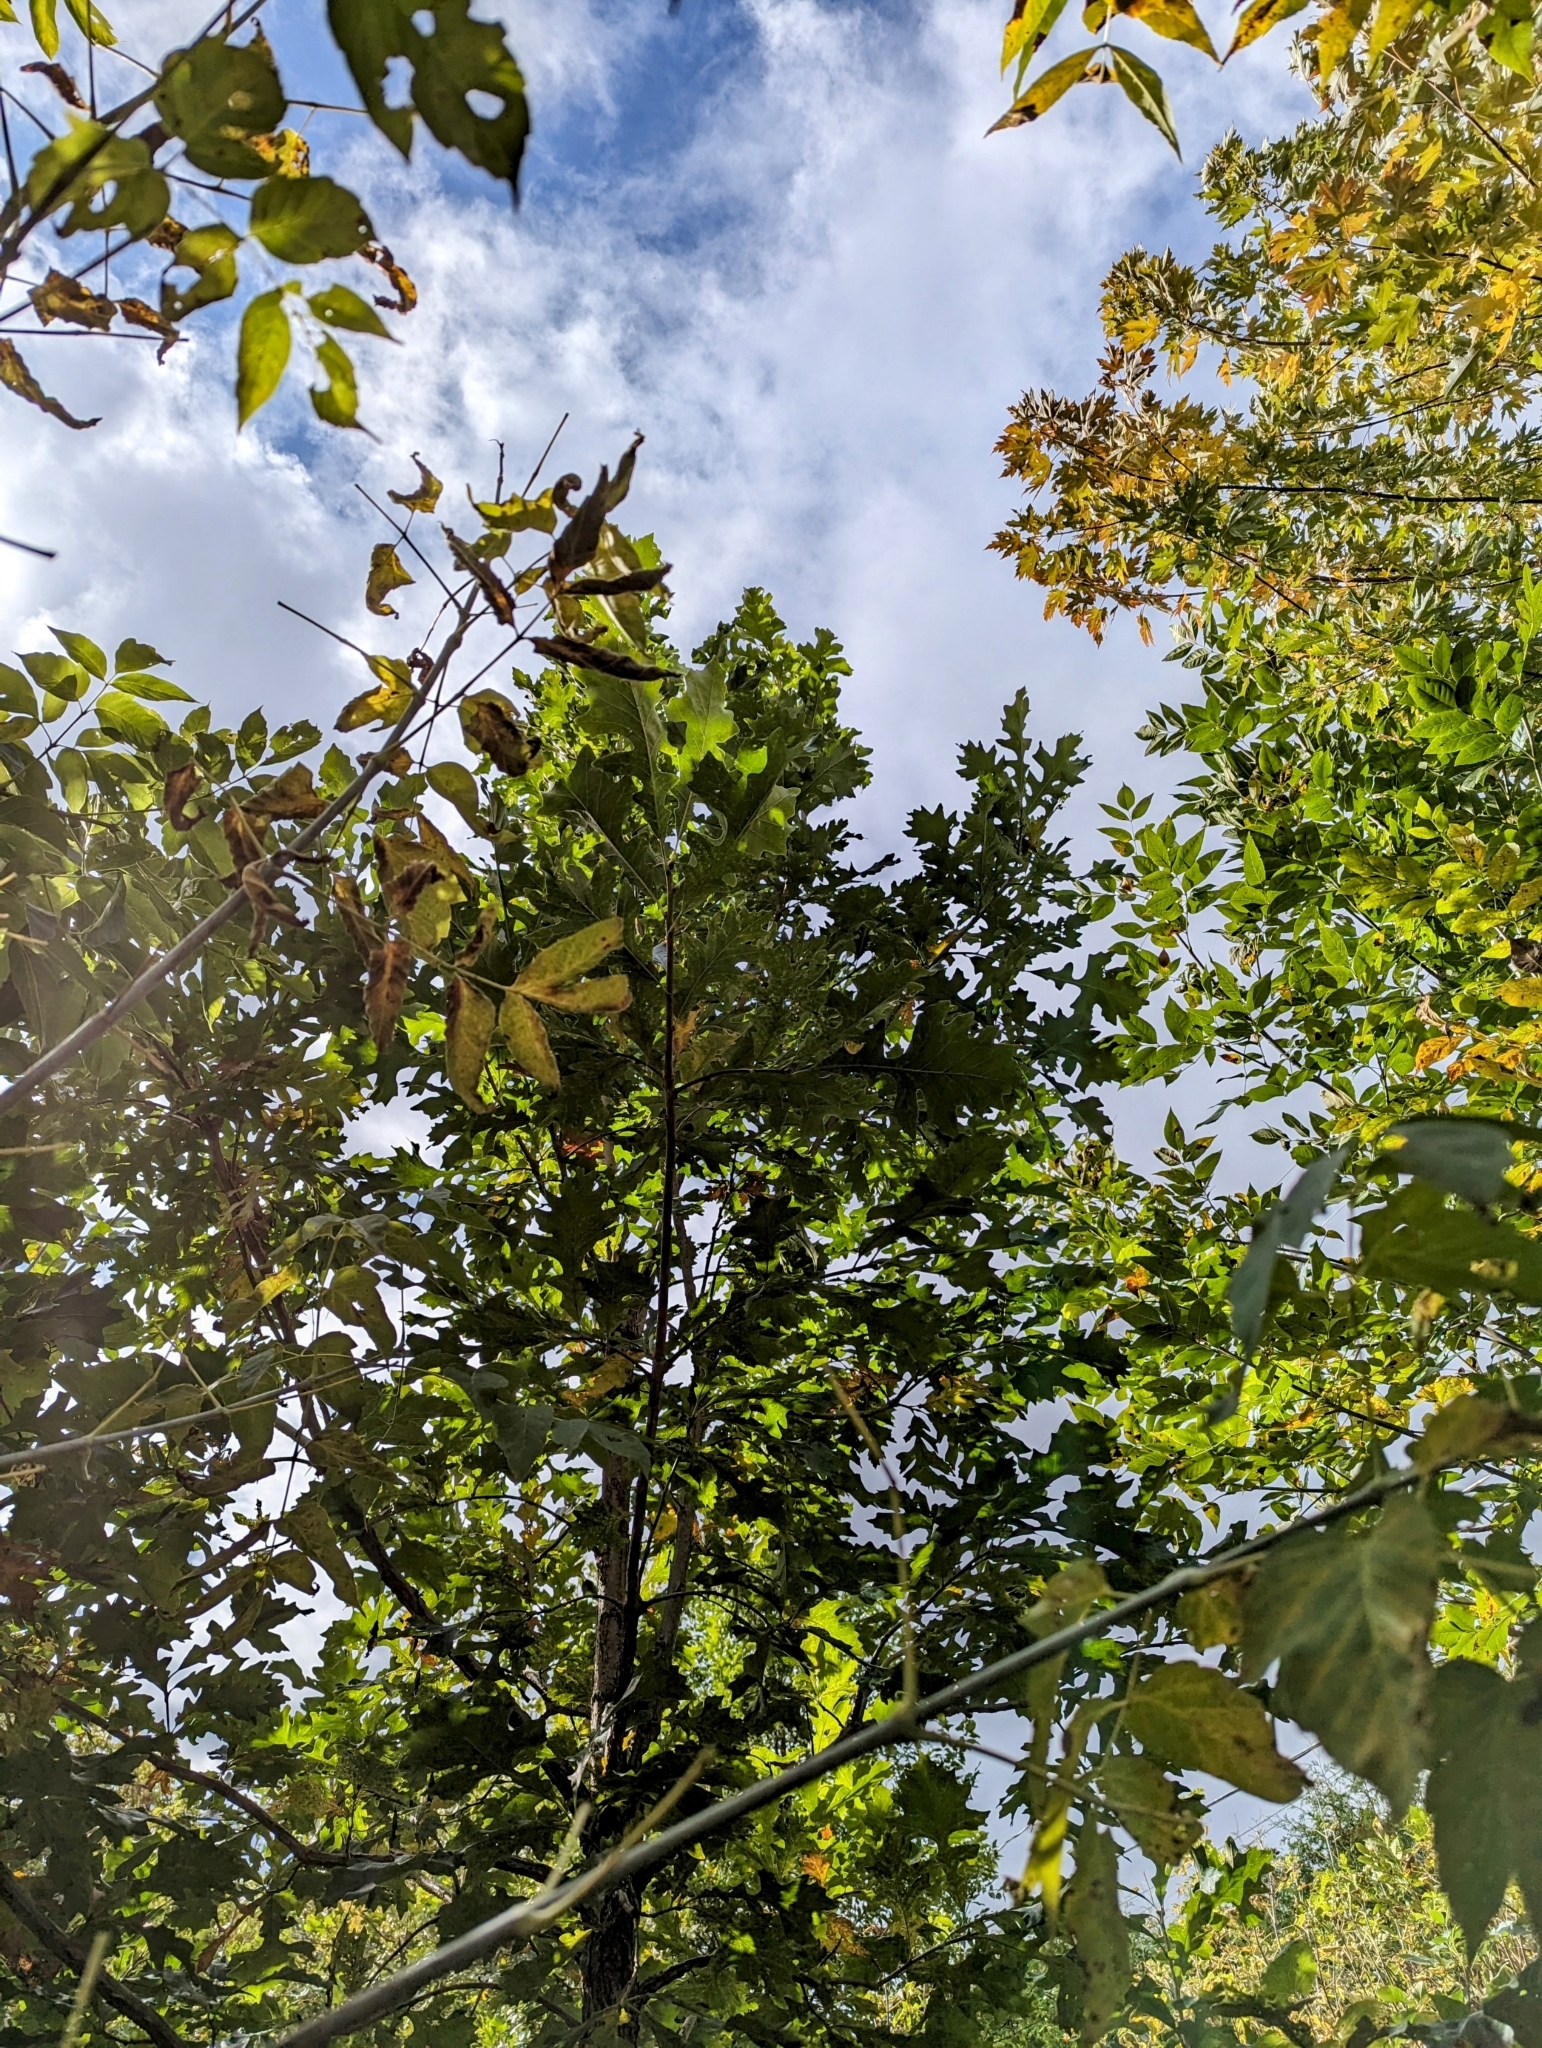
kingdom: Plantae
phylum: Tracheophyta
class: Magnoliopsida
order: Fagales
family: Fagaceae
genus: Quercus
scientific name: Quercus macrocarpa
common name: Bur oak
